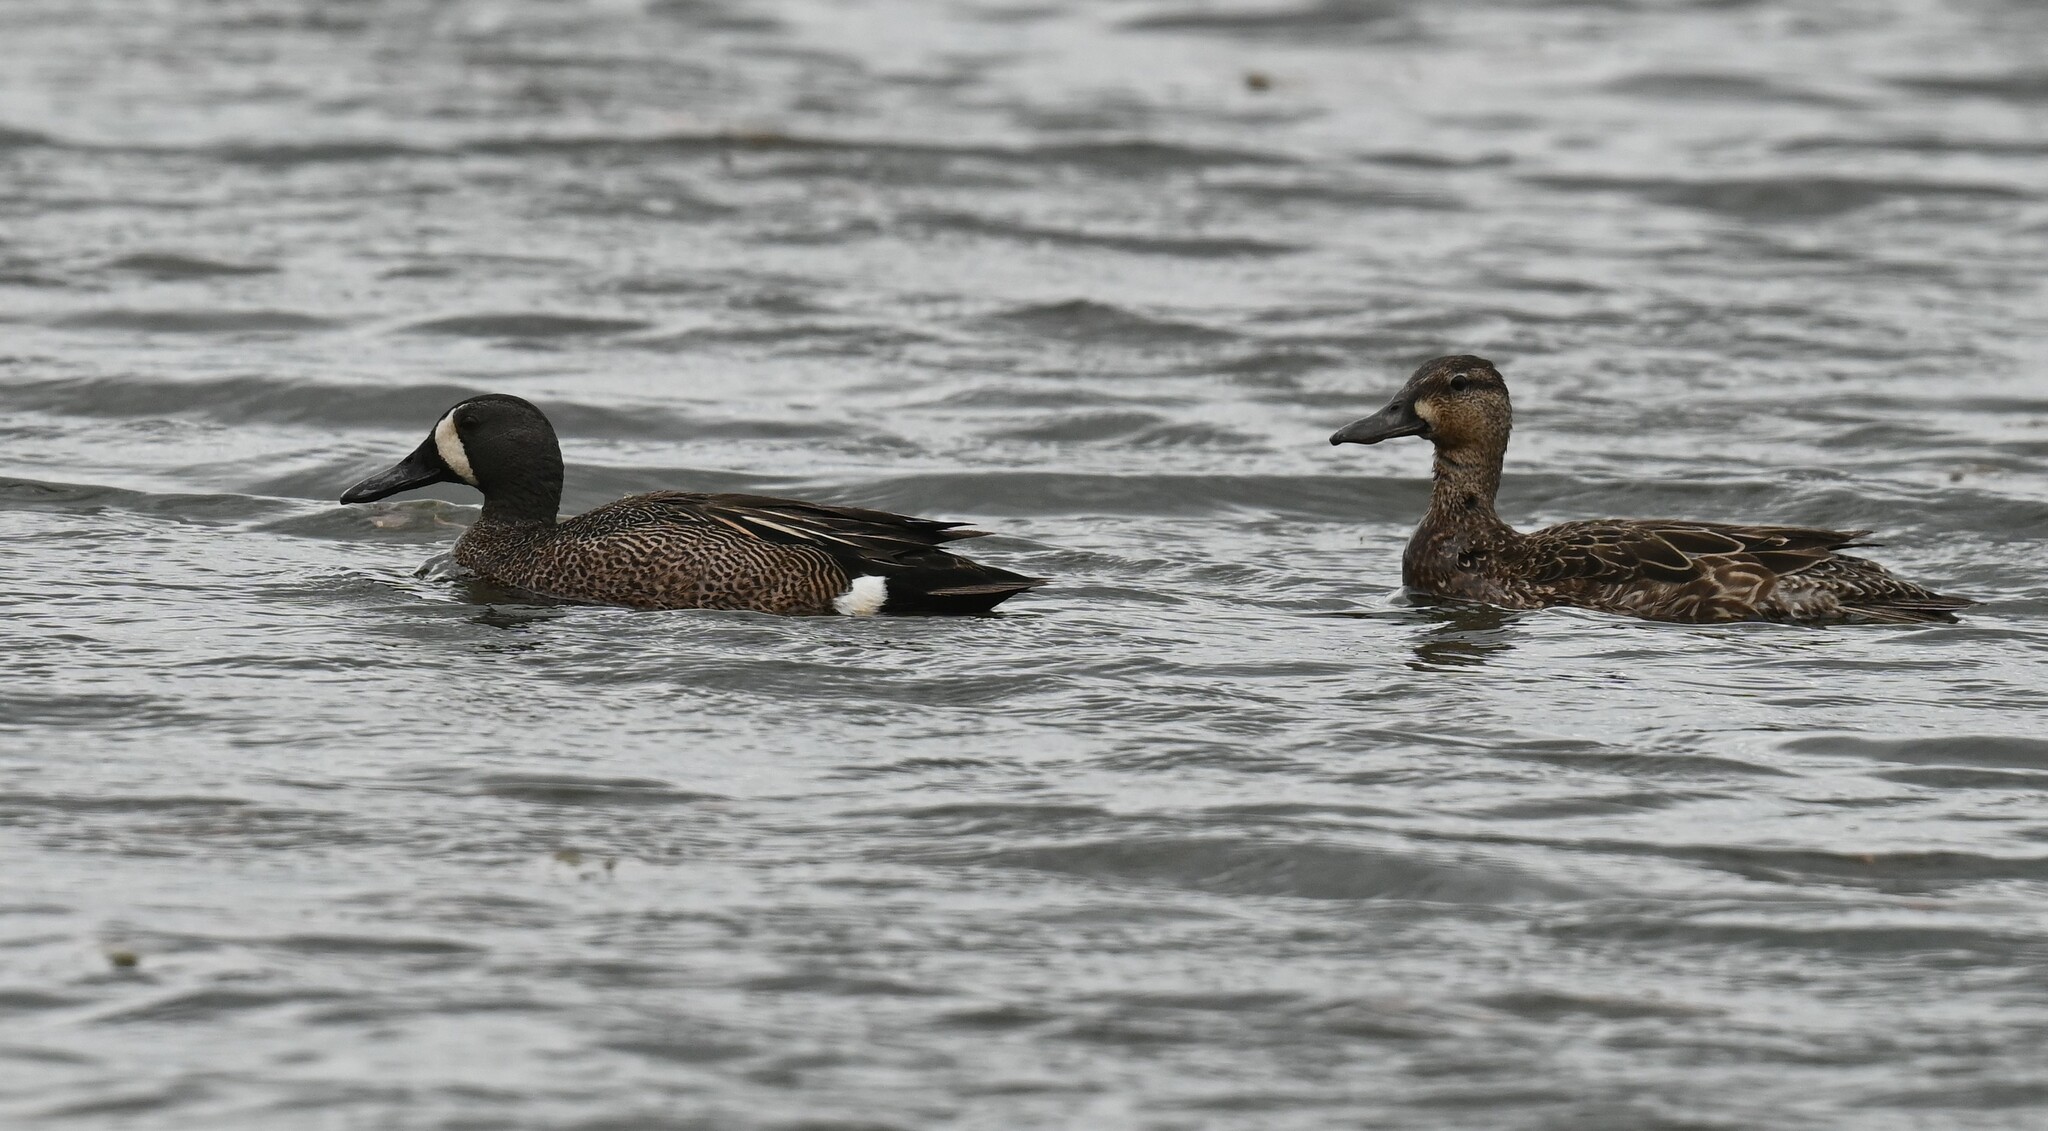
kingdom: Animalia
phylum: Chordata
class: Aves
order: Anseriformes
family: Anatidae
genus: Spatula
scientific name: Spatula discors
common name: Blue-winged teal
